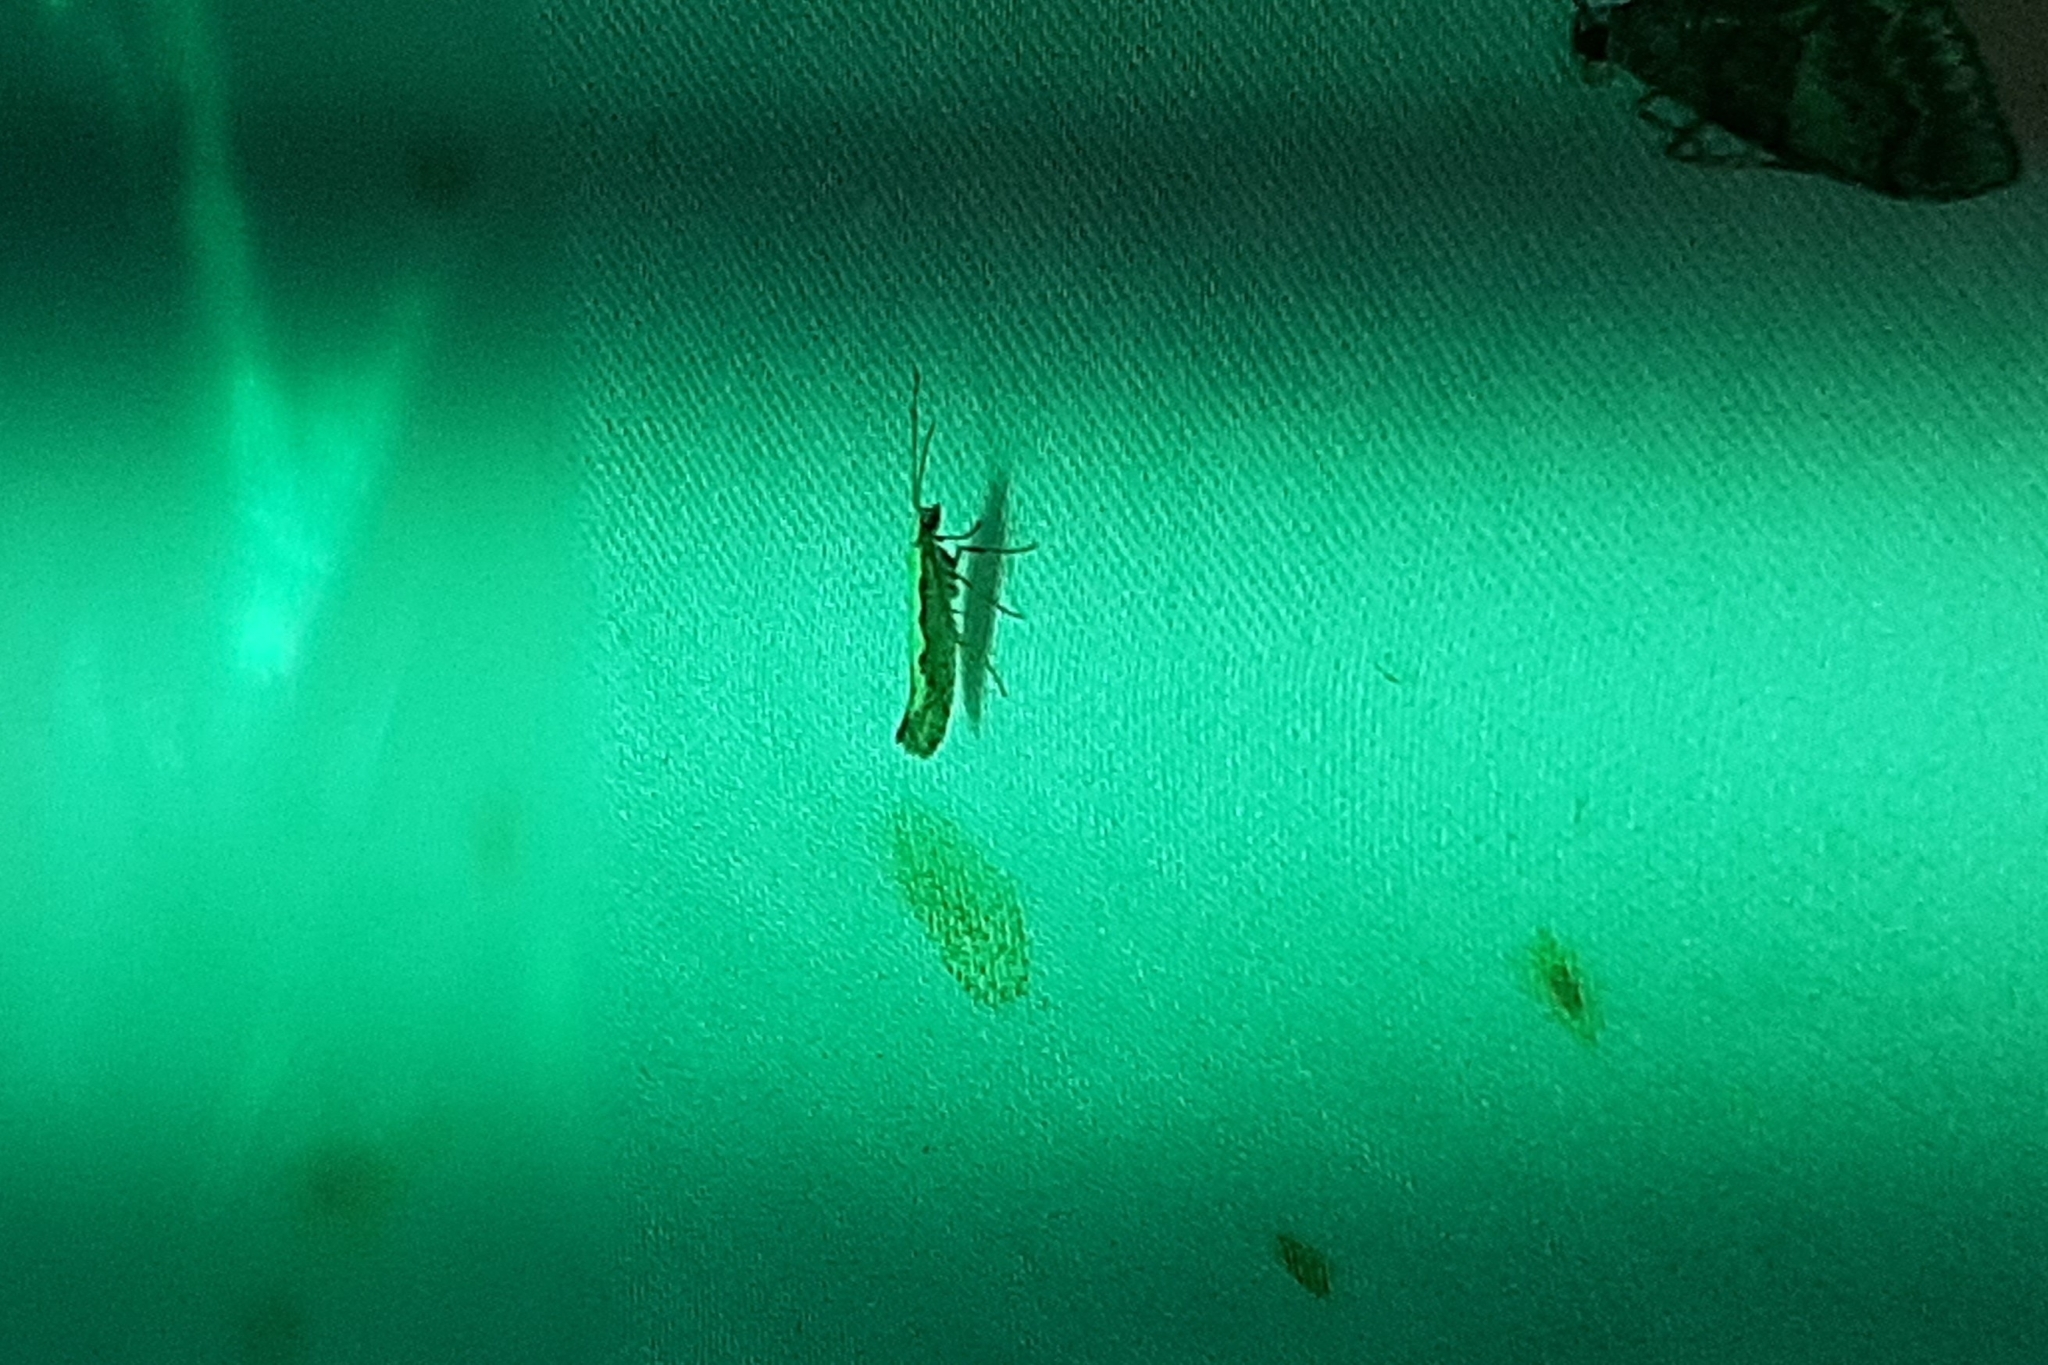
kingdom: Animalia
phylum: Arthropoda
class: Insecta
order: Lepidoptera
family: Plutellidae
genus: Plutella
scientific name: Plutella xylostella
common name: Diamond-back moth
